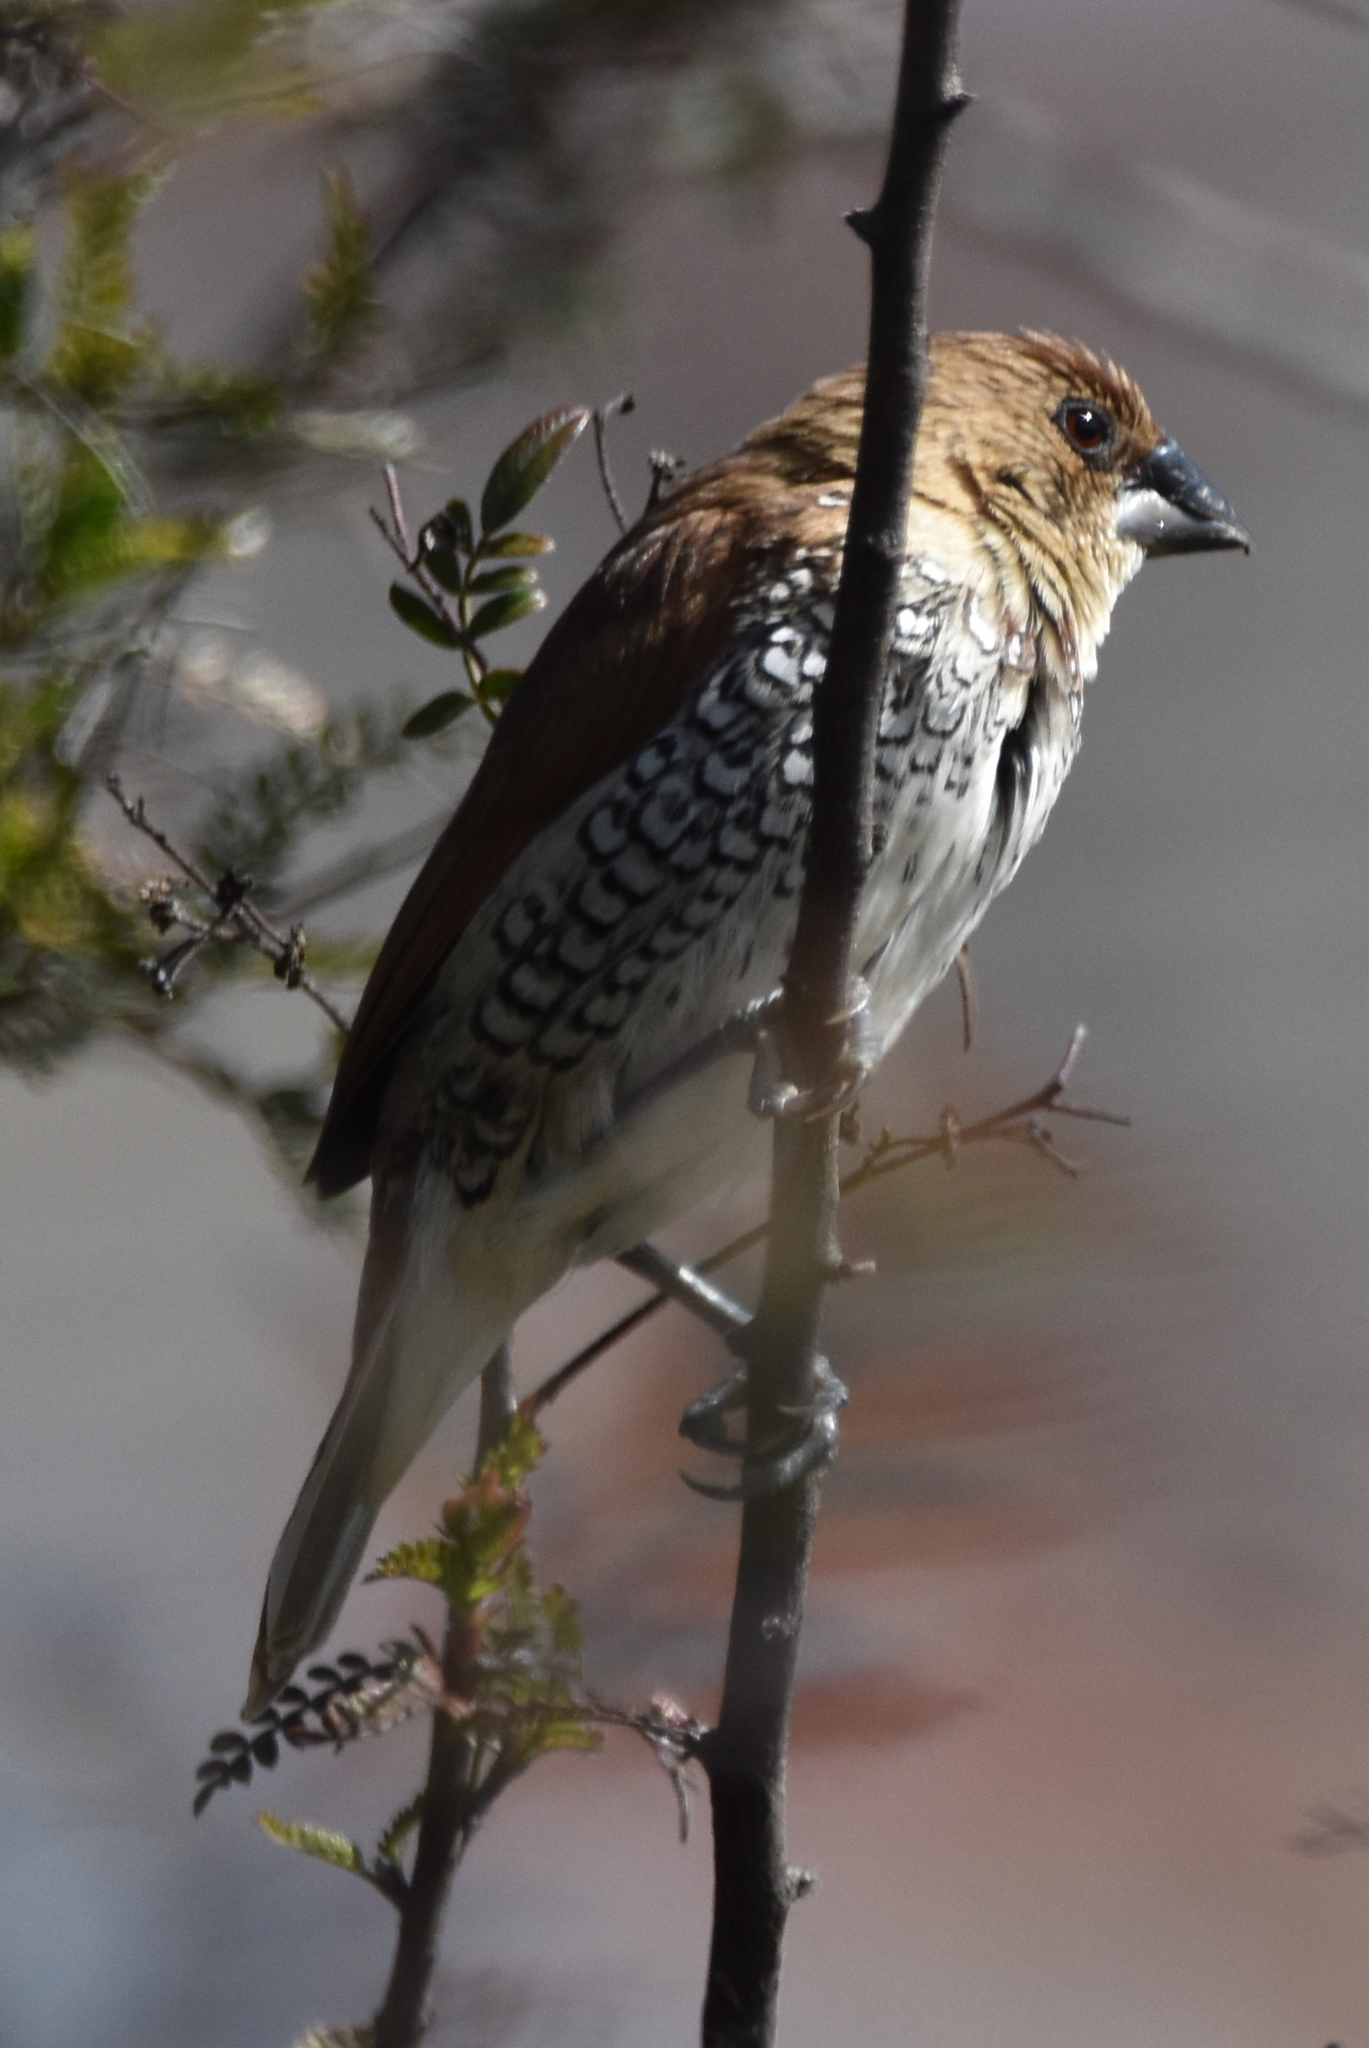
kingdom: Animalia
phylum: Chordata
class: Aves
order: Passeriformes
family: Estrildidae
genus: Lonchura
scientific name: Lonchura punctulata
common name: Scaly-breasted munia
